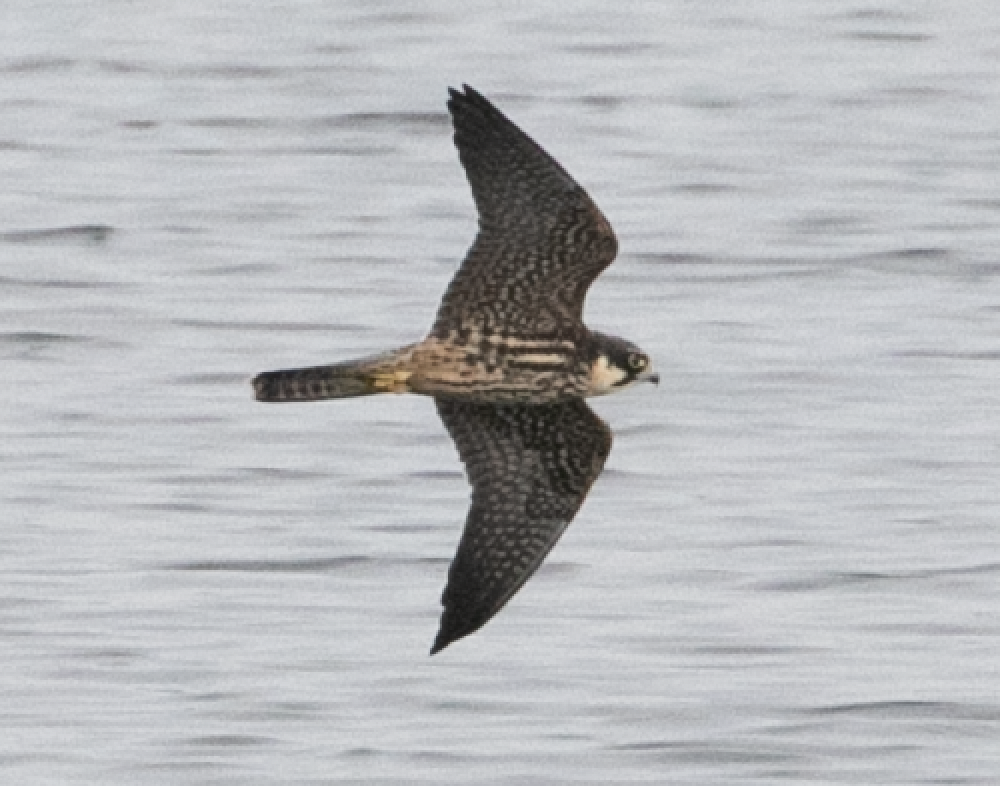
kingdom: Animalia
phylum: Chordata
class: Aves
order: Falconiformes
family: Falconidae
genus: Falco
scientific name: Falco subbuteo
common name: Eurasian hobby
